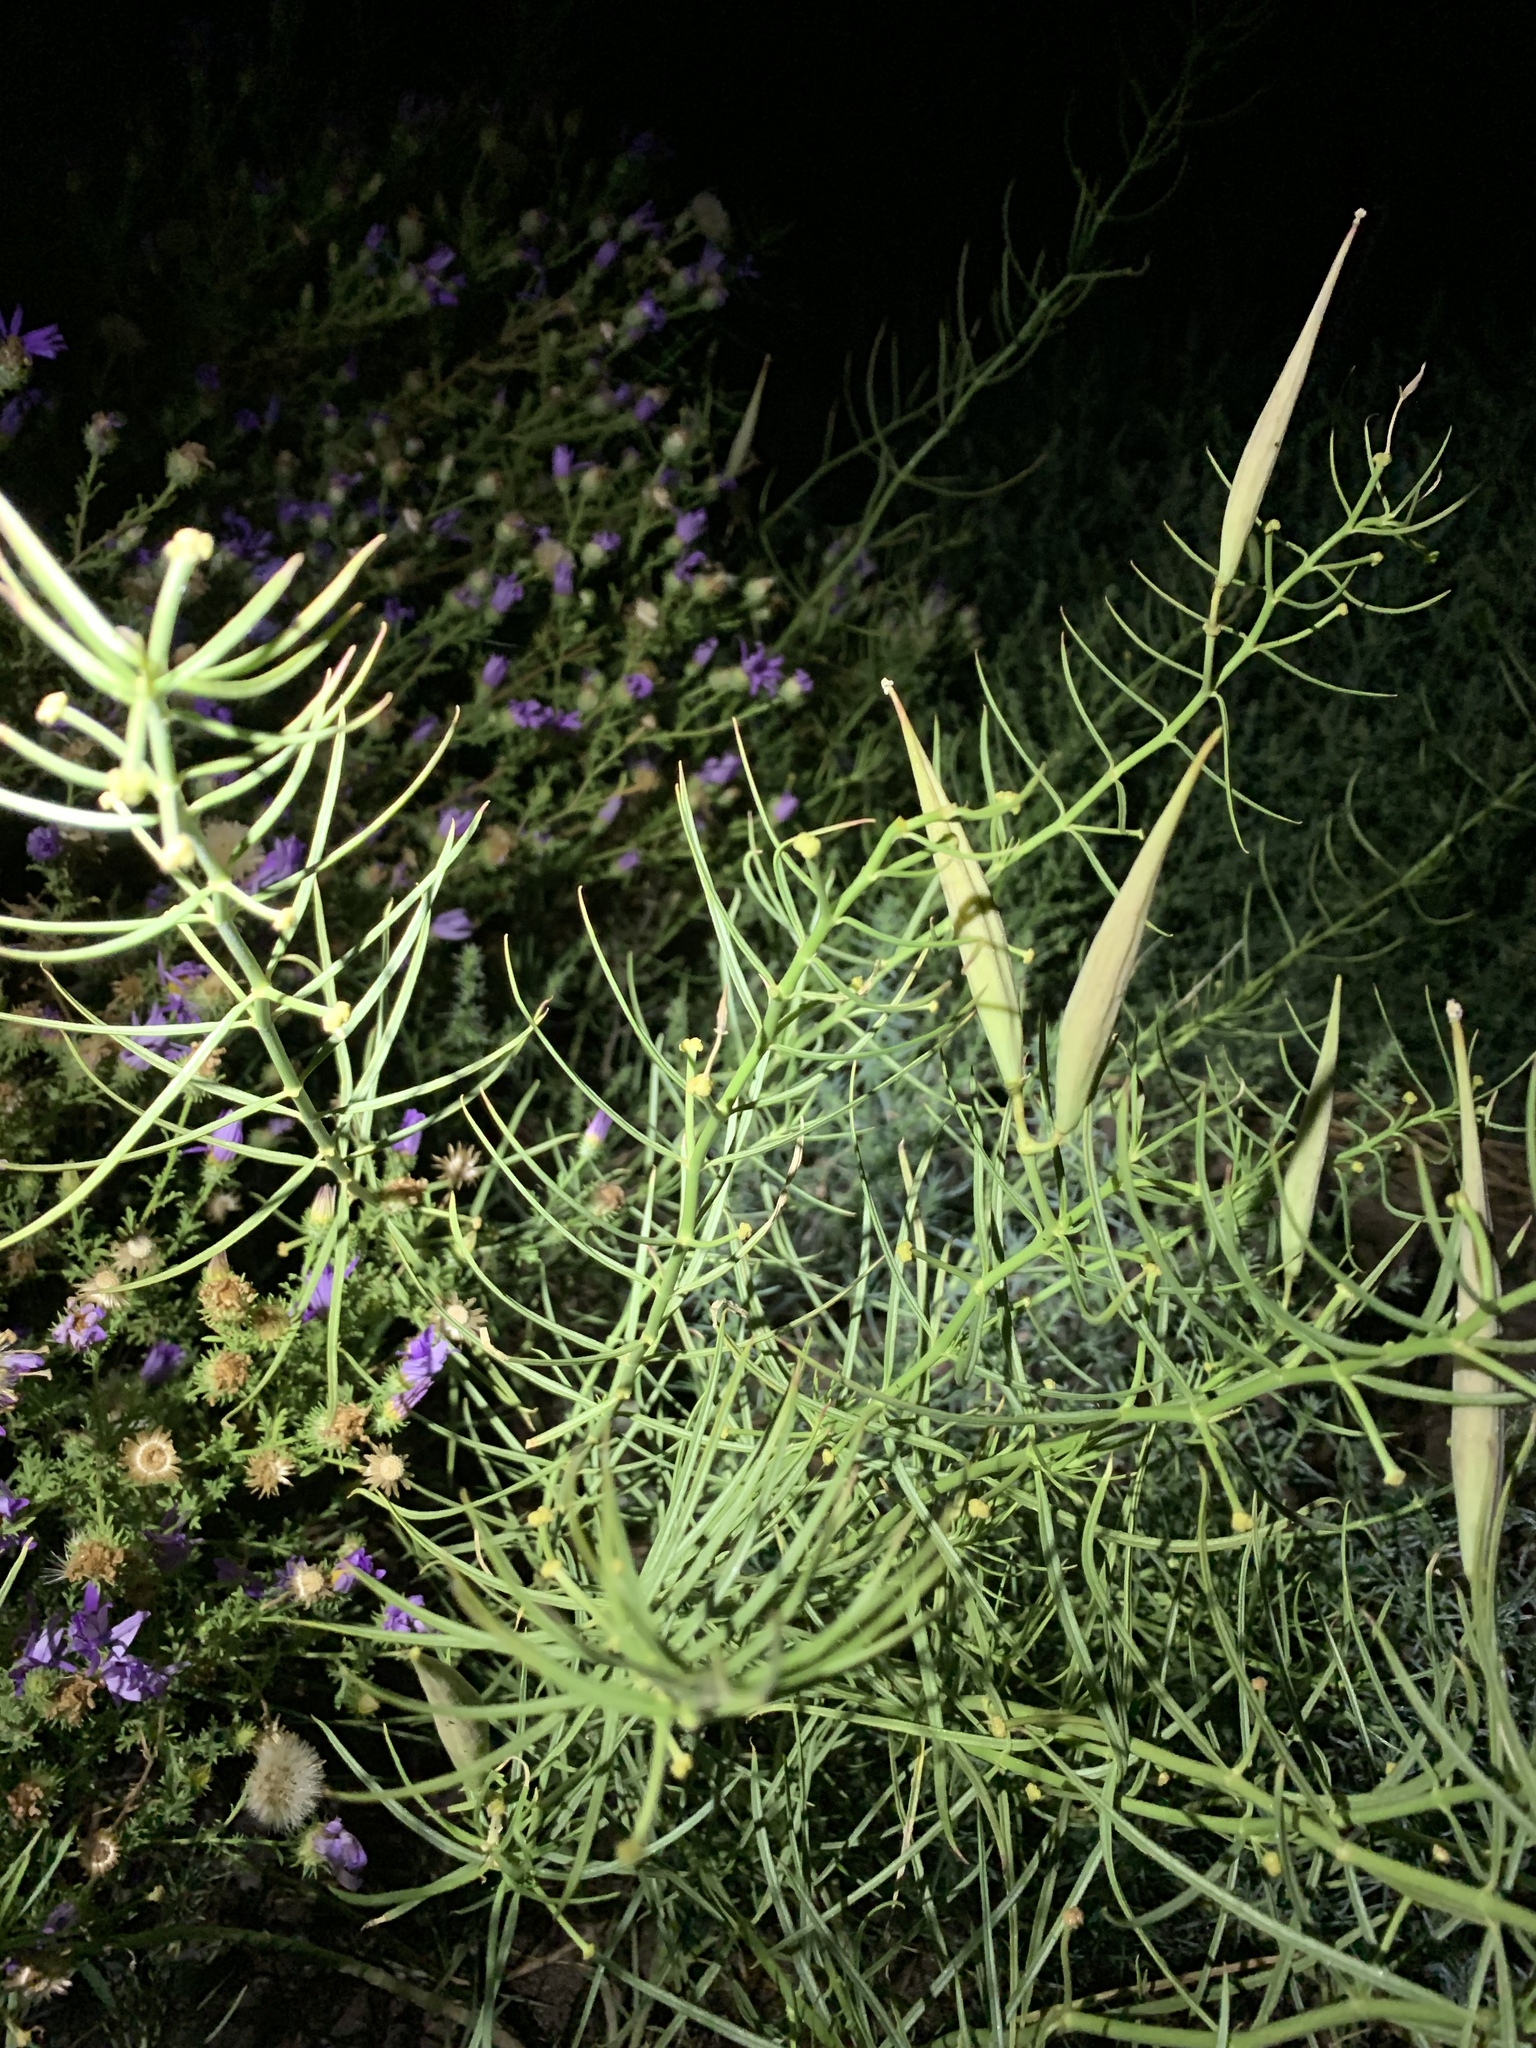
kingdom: Plantae
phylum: Tracheophyta
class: Magnoliopsida
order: Gentianales
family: Apocynaceae
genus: Asclepias
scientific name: Asclepias subverticillata
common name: Horsetail milkweed
